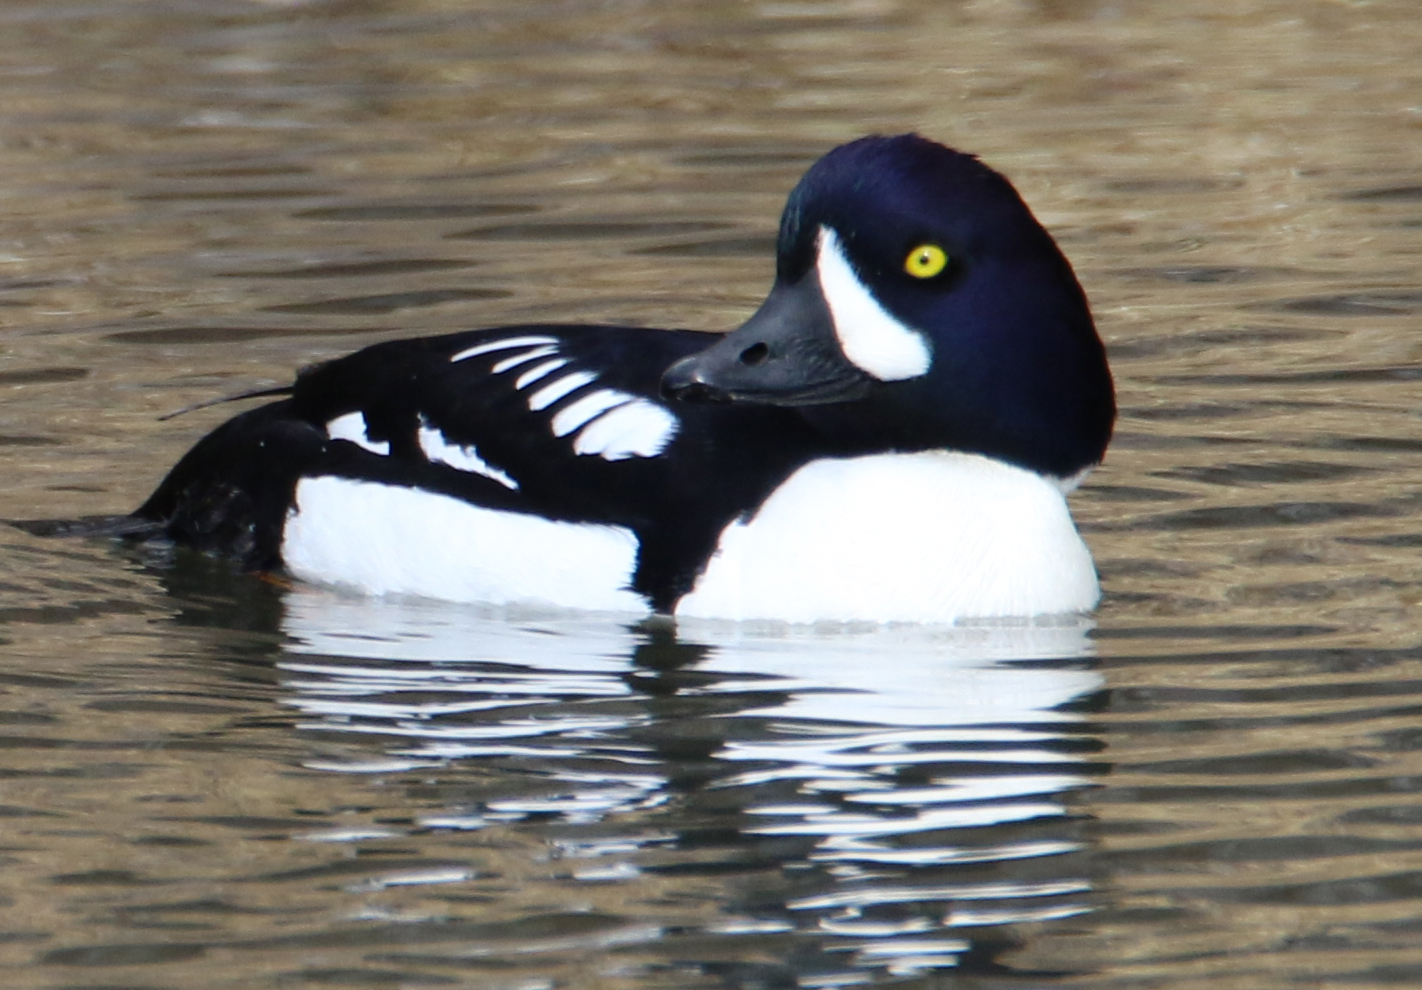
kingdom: Animalia
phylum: Chordata
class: Aves
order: Anseriformes
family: Anatidae
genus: Bucephala
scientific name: Bucephala islandica
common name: Barrow's goldeneye
